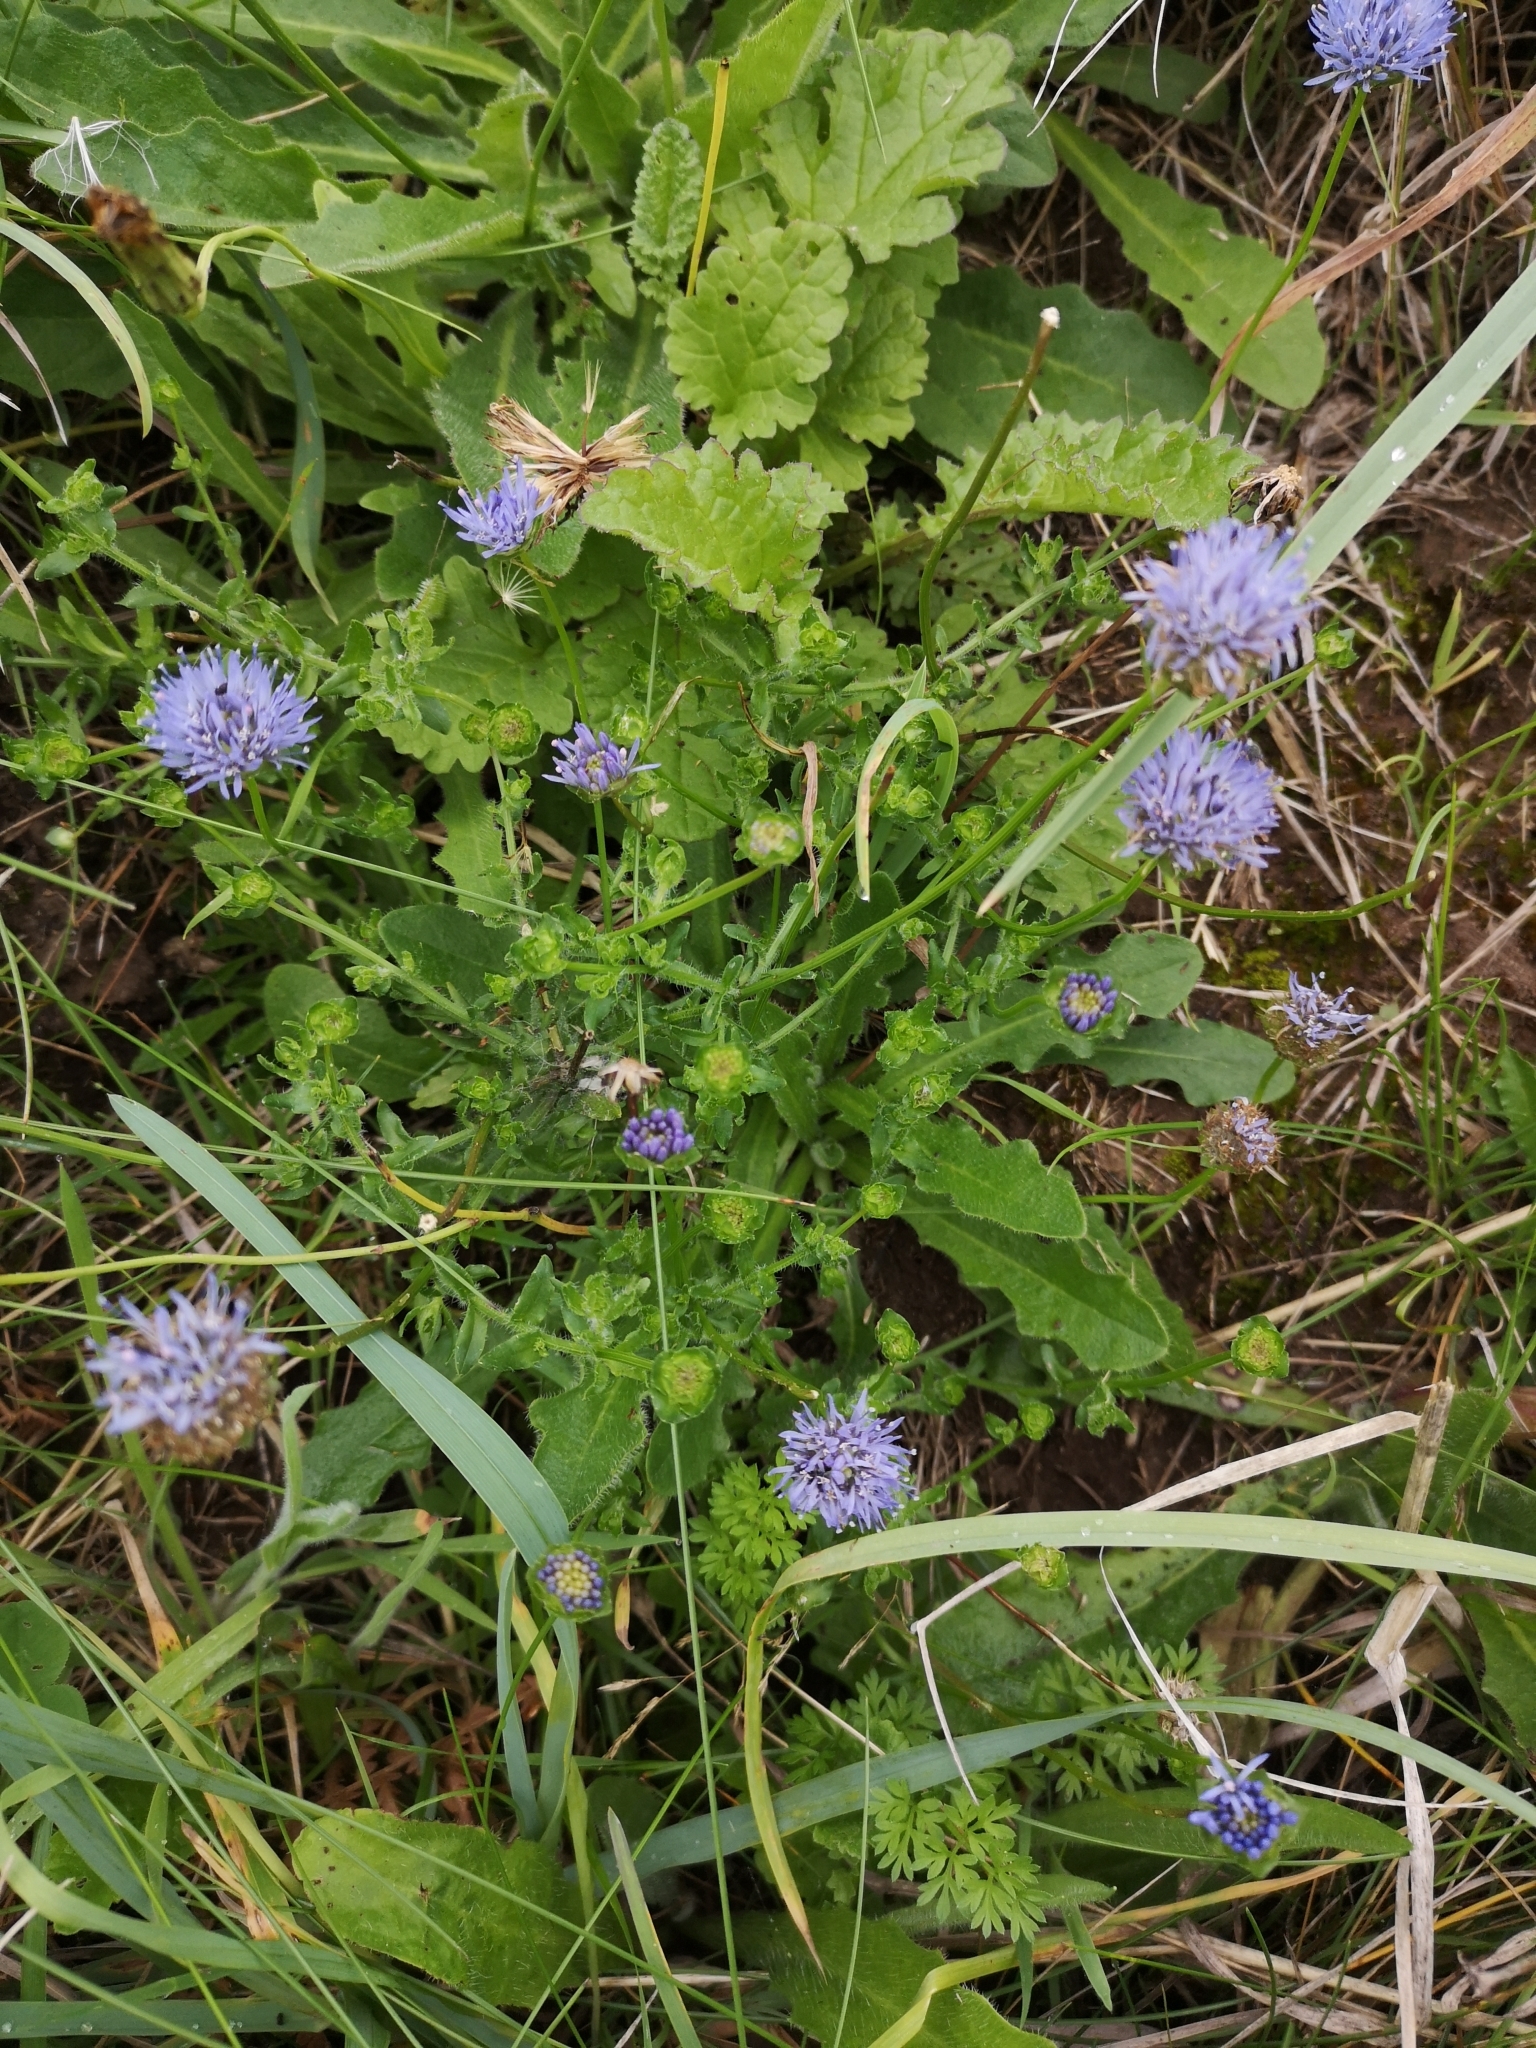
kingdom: Plantae
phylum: Tracheophyta
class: Magnoliopsida
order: Asterales
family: Campanulaceae
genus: Jasione
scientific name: Jasione montana
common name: Sheep's-bit
